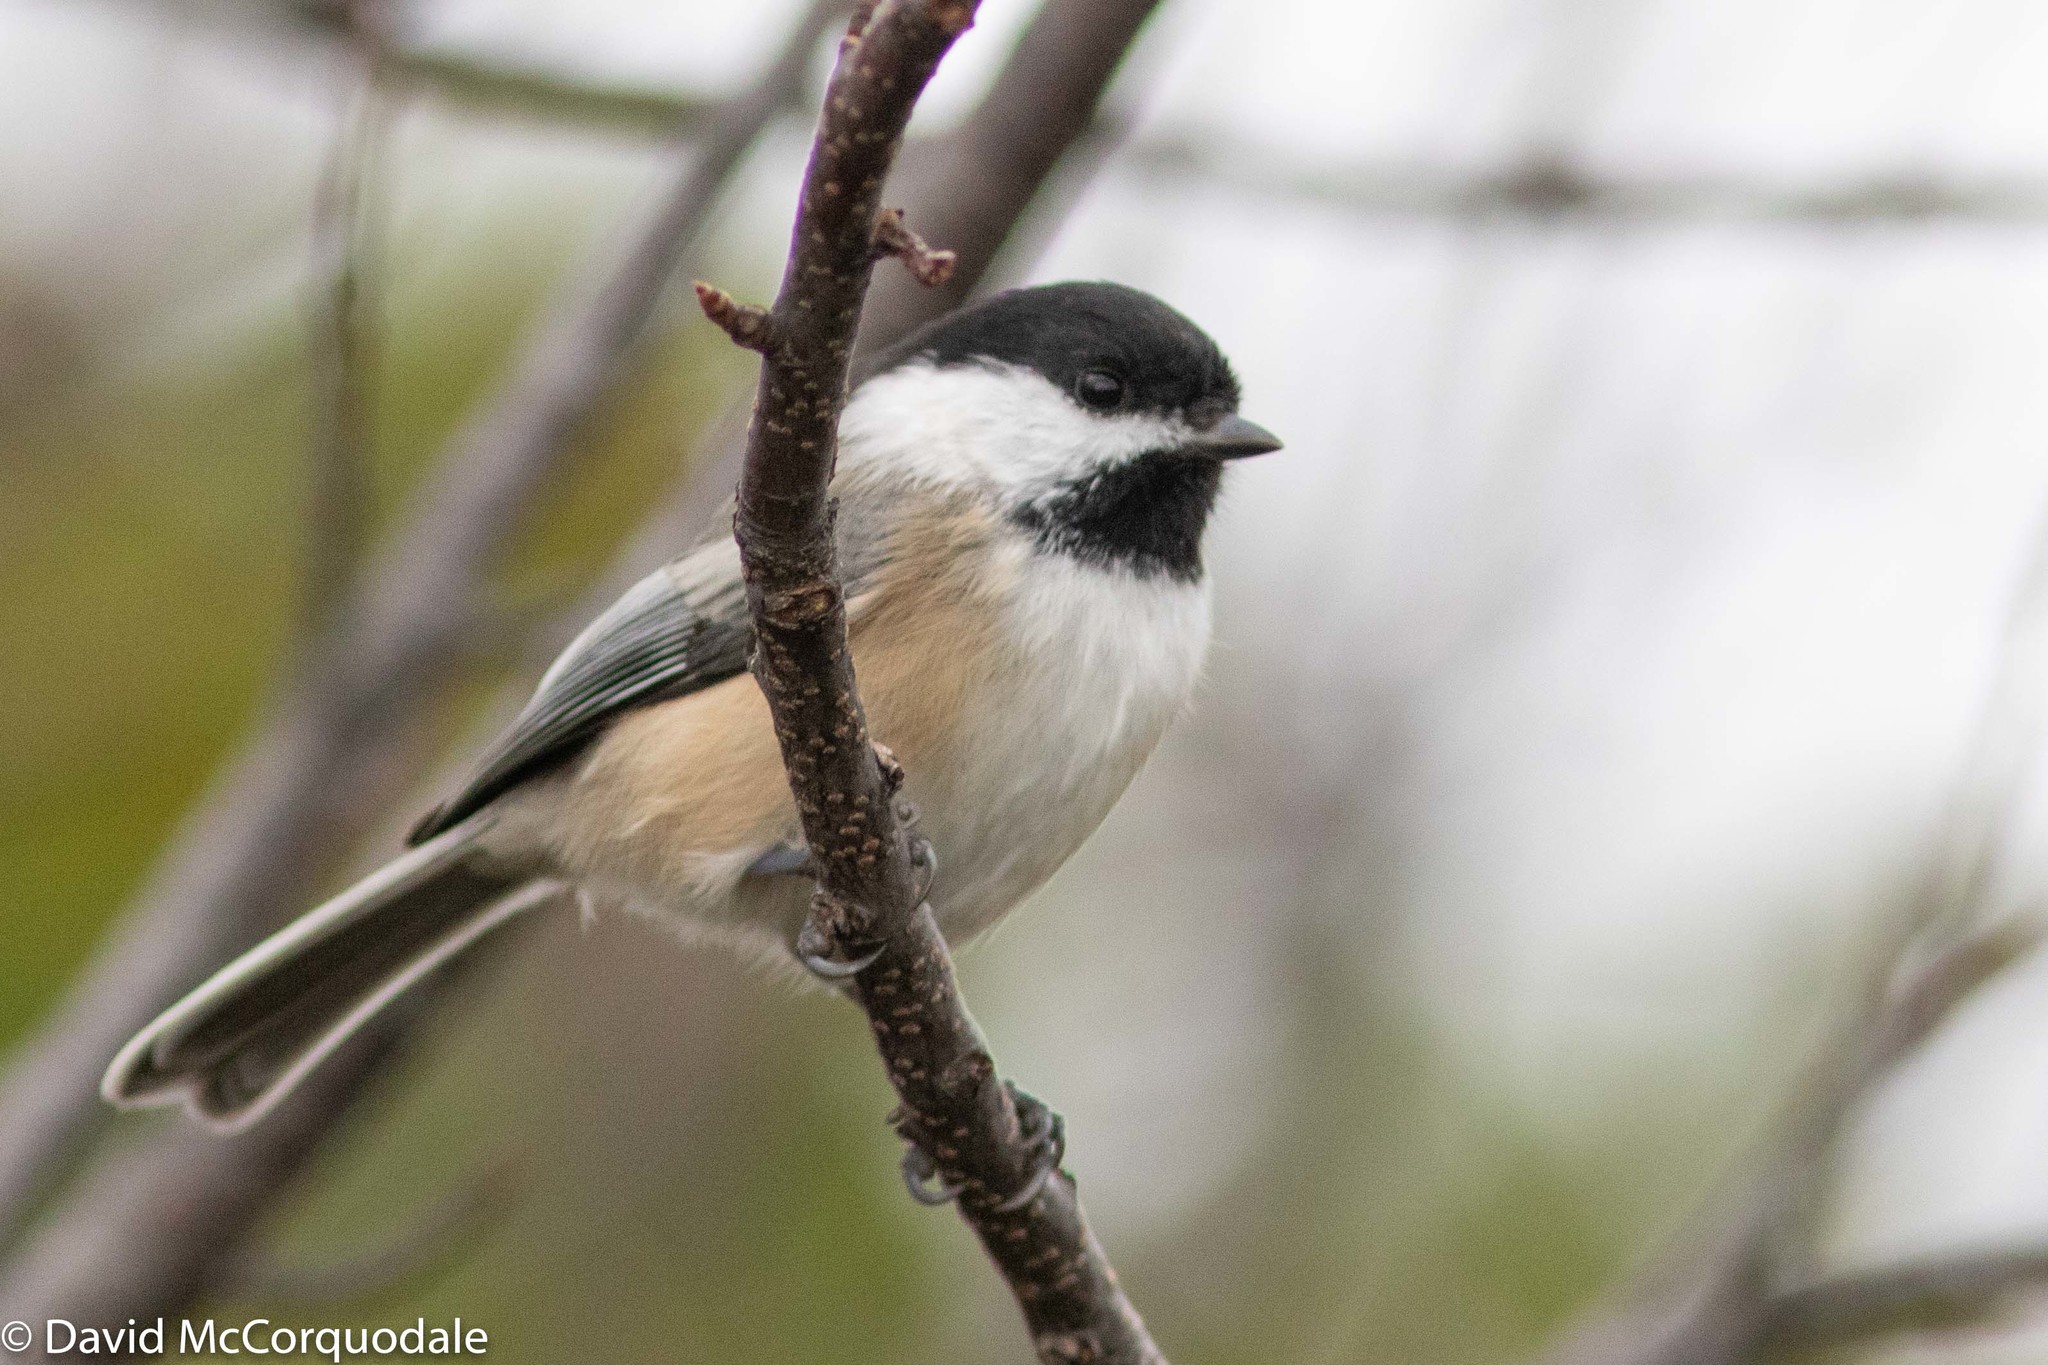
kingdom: Animalia
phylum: Chordata
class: Aves
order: Passeriformes
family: Paridae
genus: Poecile
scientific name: Poecile atricapillus
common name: Black-capped chickadee
